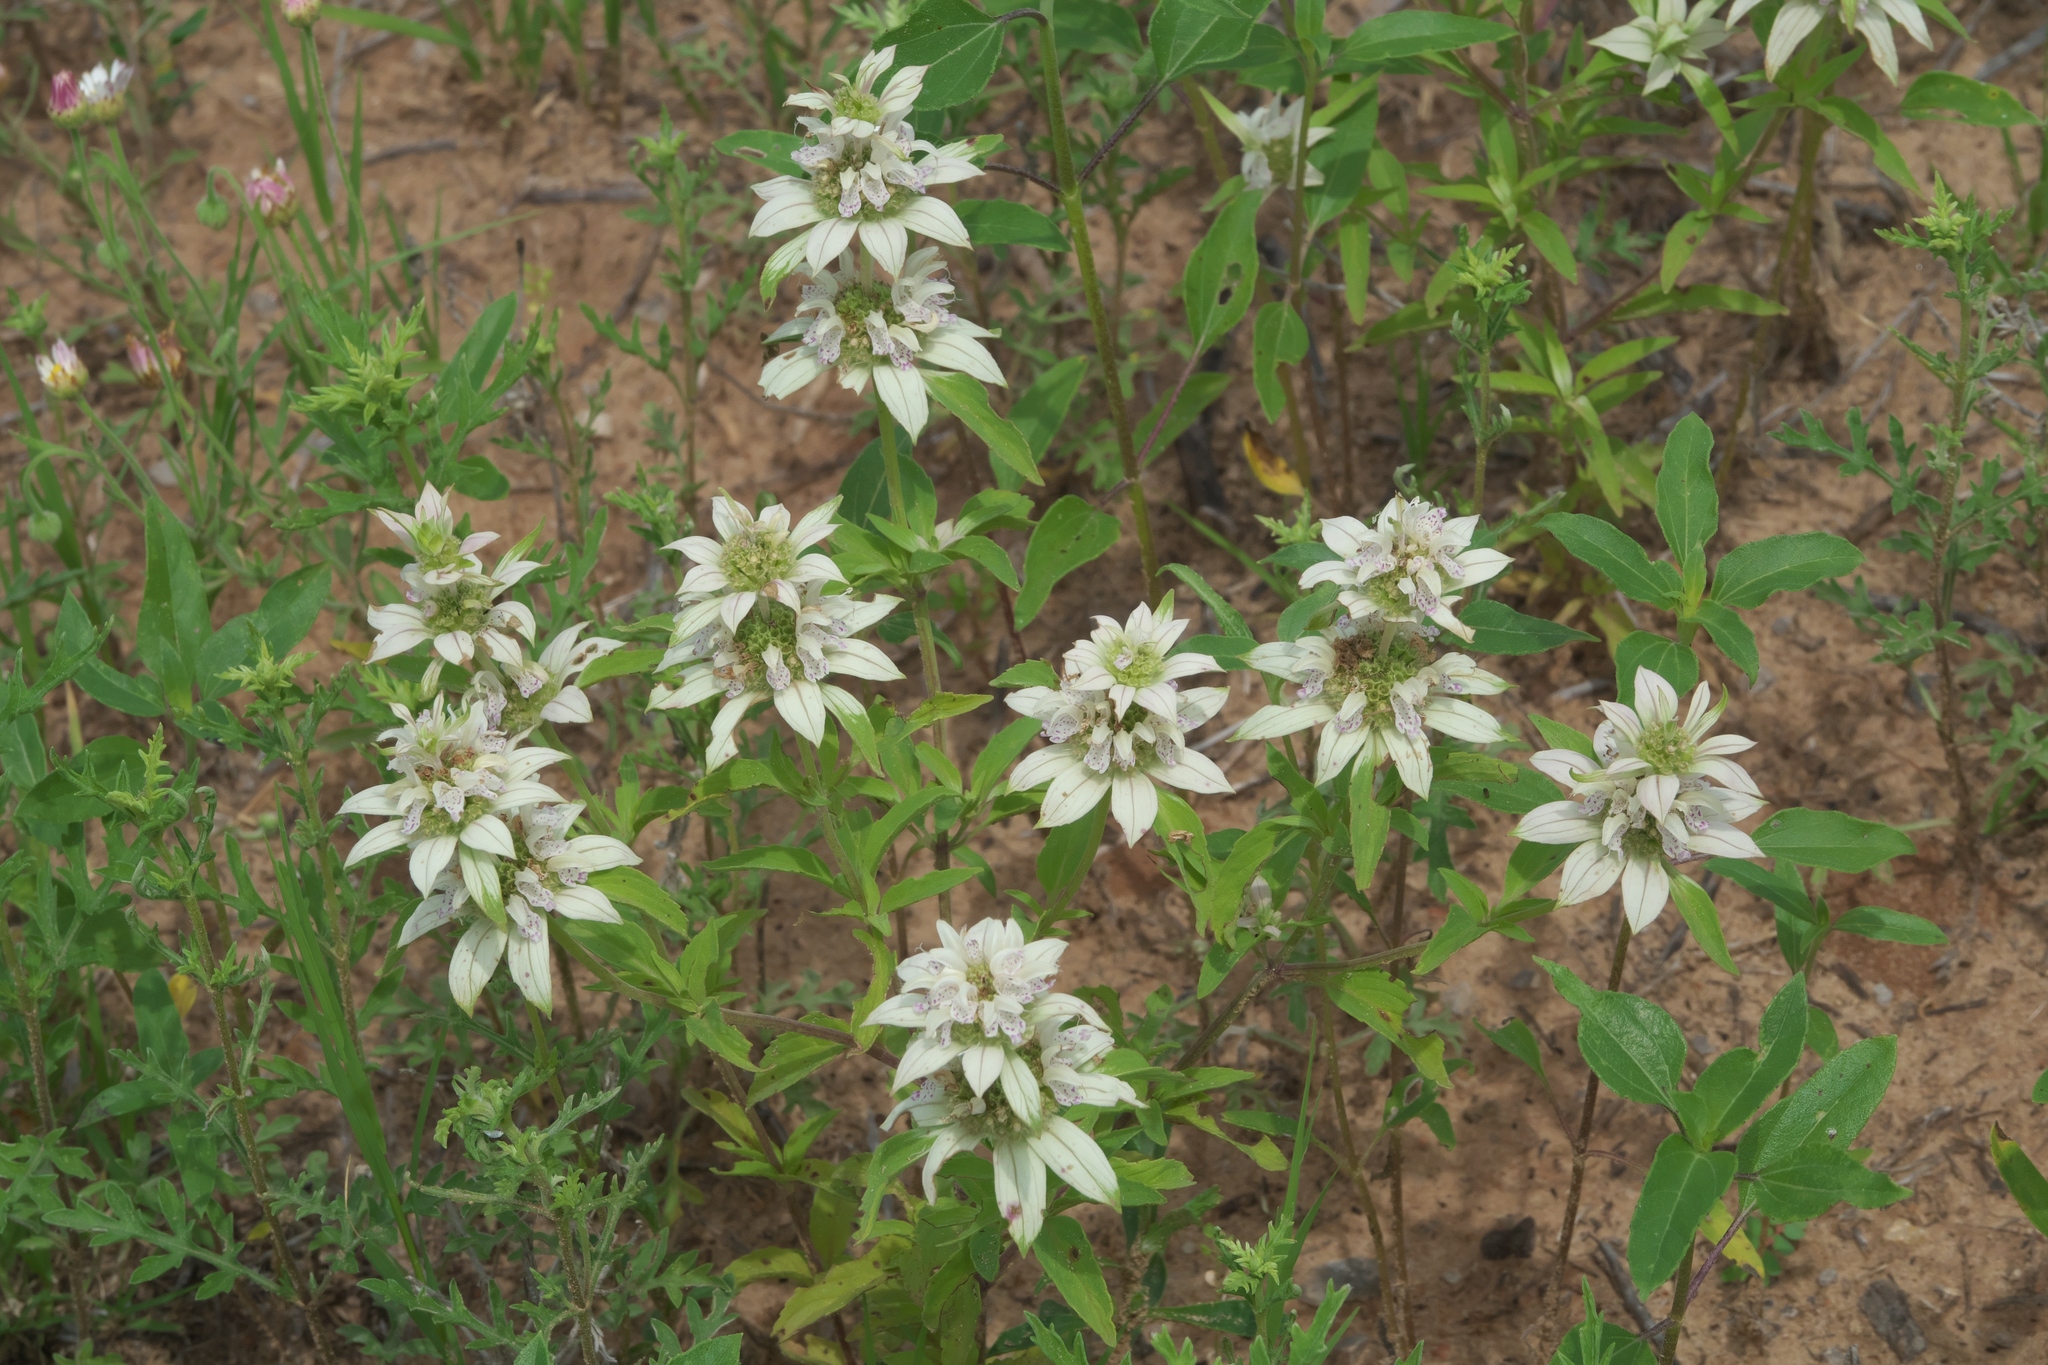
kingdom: Plantae
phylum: Tracheophyta
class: Magnoliopsida
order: Lamiales
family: Lamiaceae
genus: Monarda
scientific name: Monarda punctata
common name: Dotted monarda
